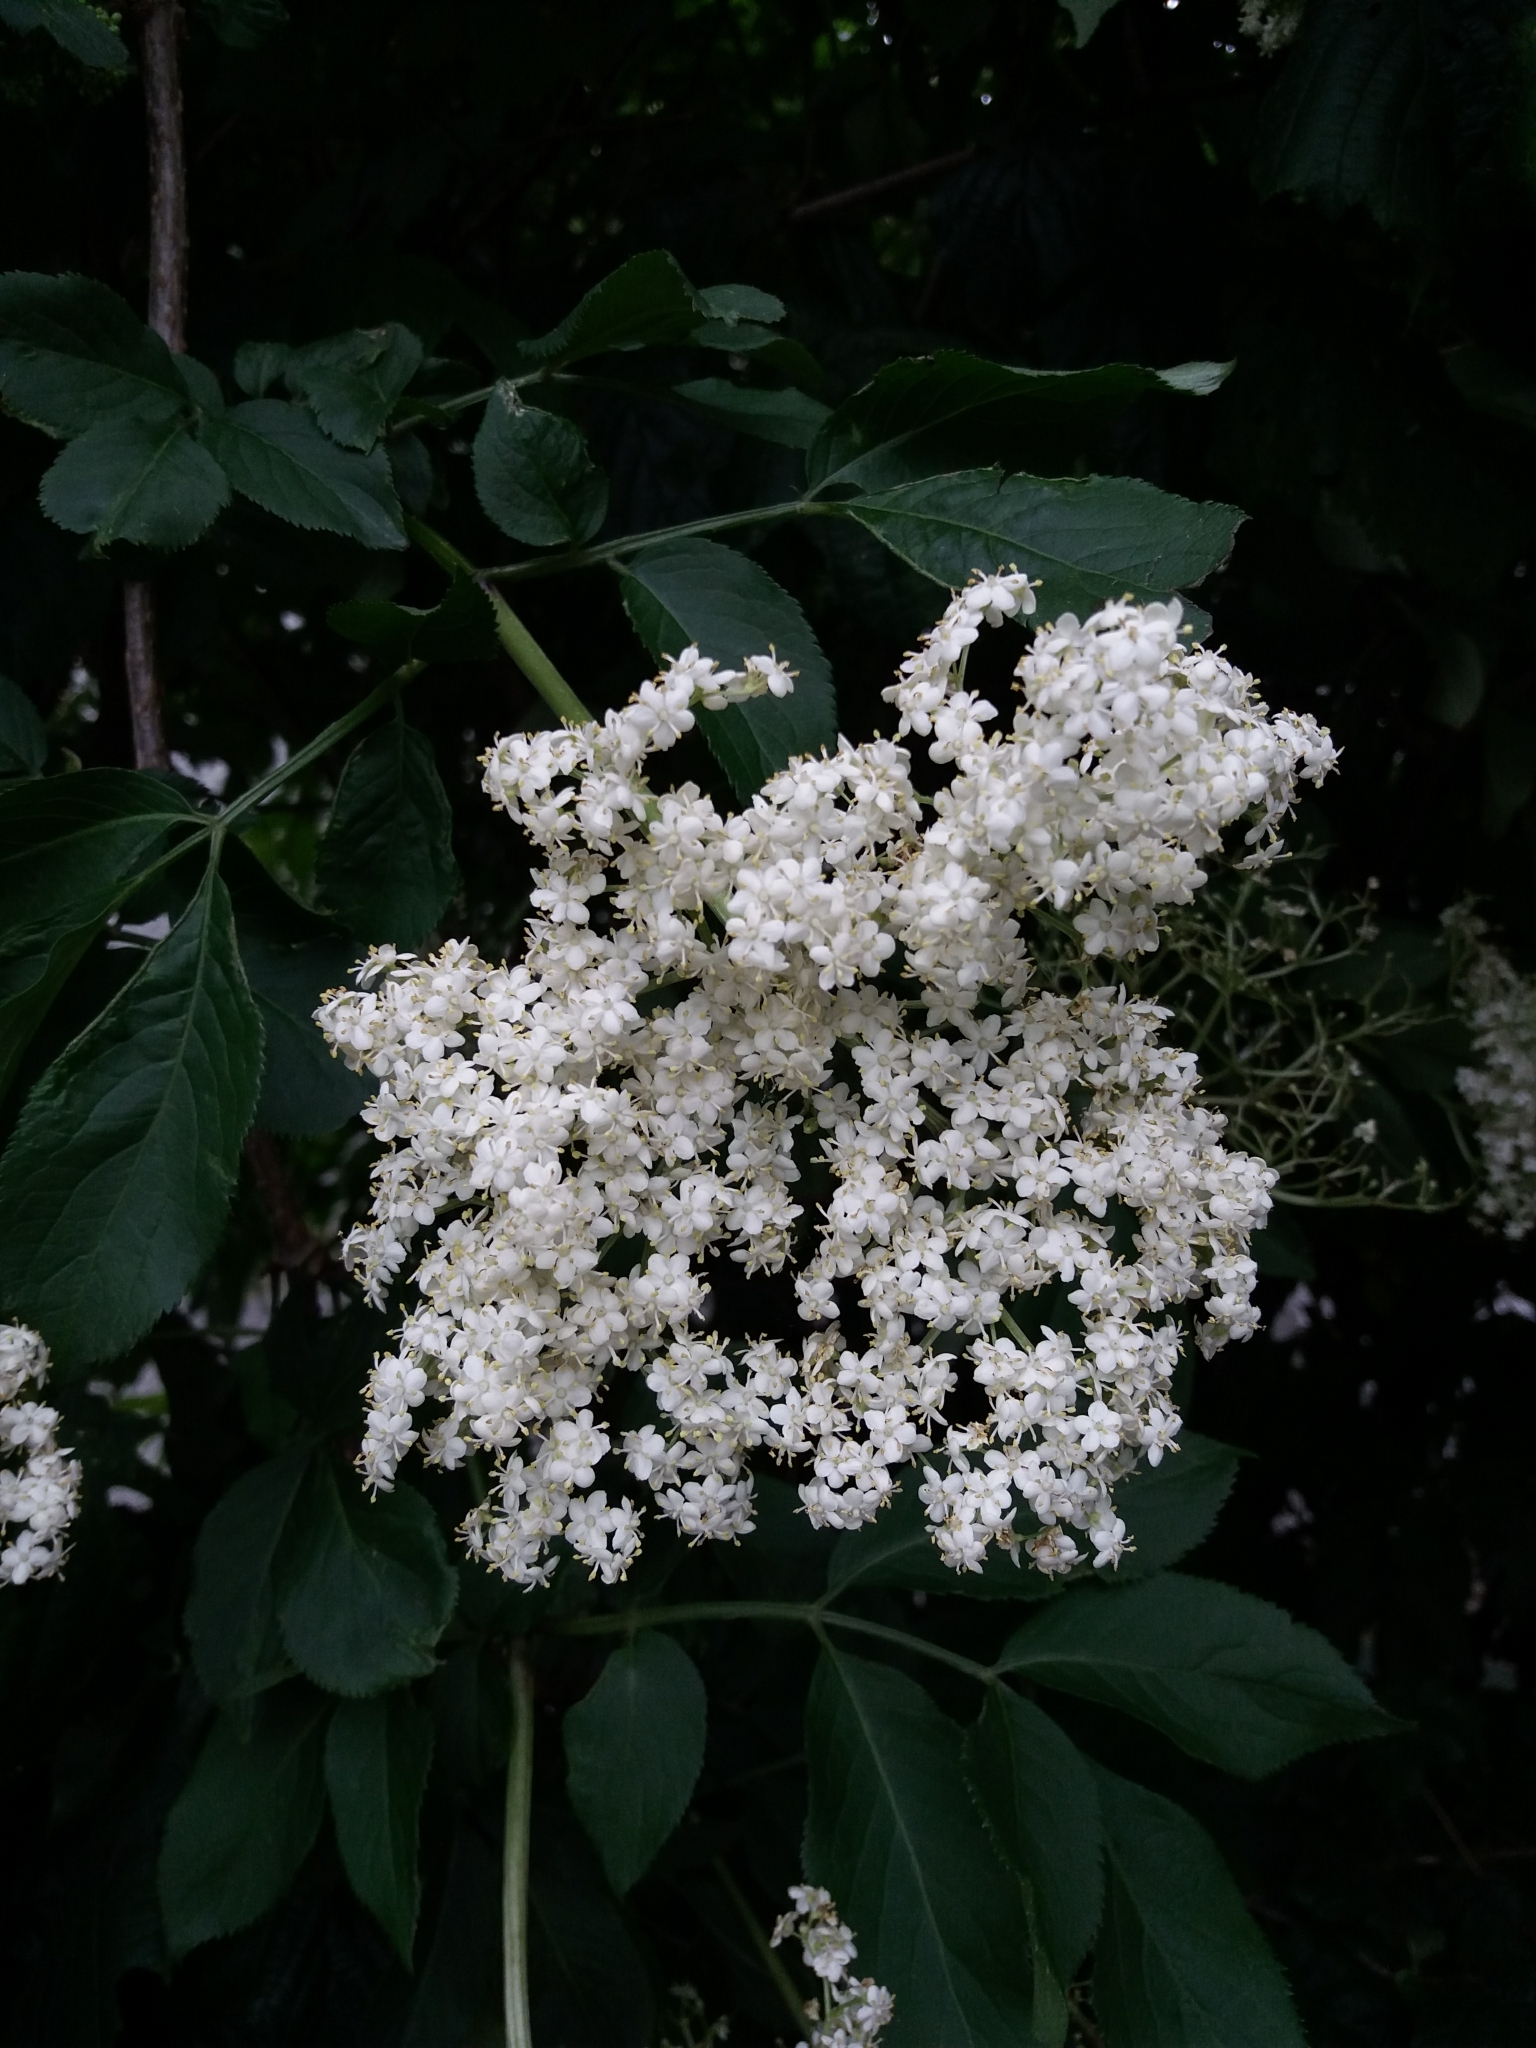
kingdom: Plantae
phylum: Tracheophyta
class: Magnoliopsida
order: Dipsacales
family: Viburnaceae
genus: Sambucus
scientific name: Sambucus nigra
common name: Elder
